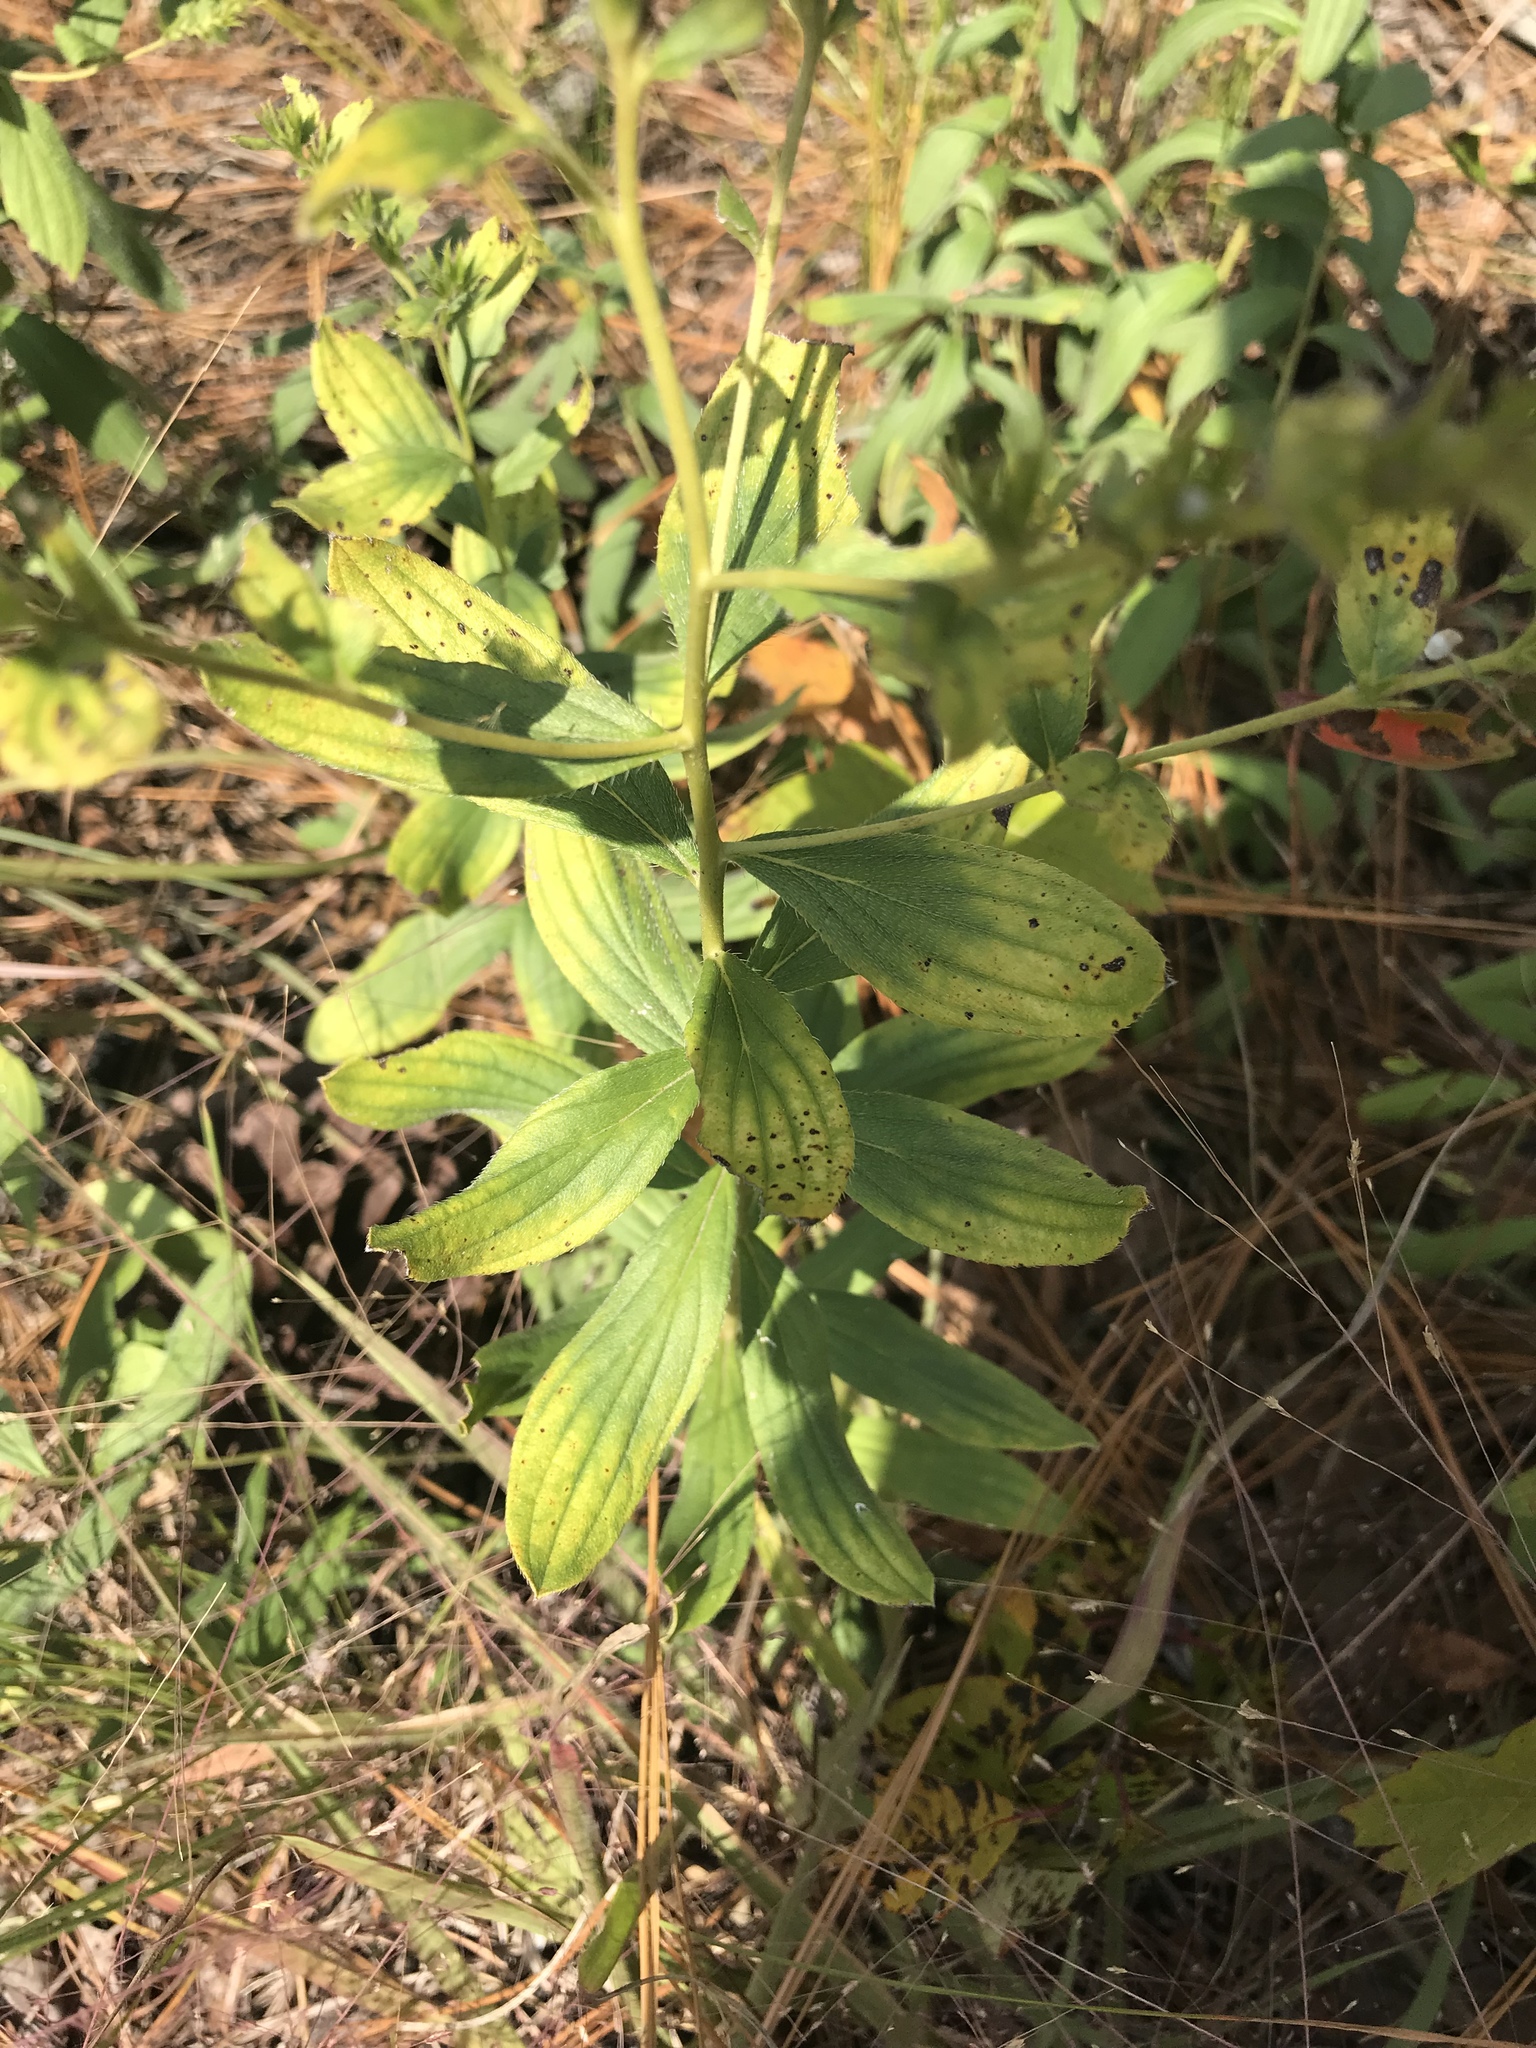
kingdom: Plantae
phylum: Tracheophyta
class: Magnoliopsida
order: Boraginales
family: Boraginaceae
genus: Lithospermum
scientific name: Lithospermum virginianum
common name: Eastern false gromwell
